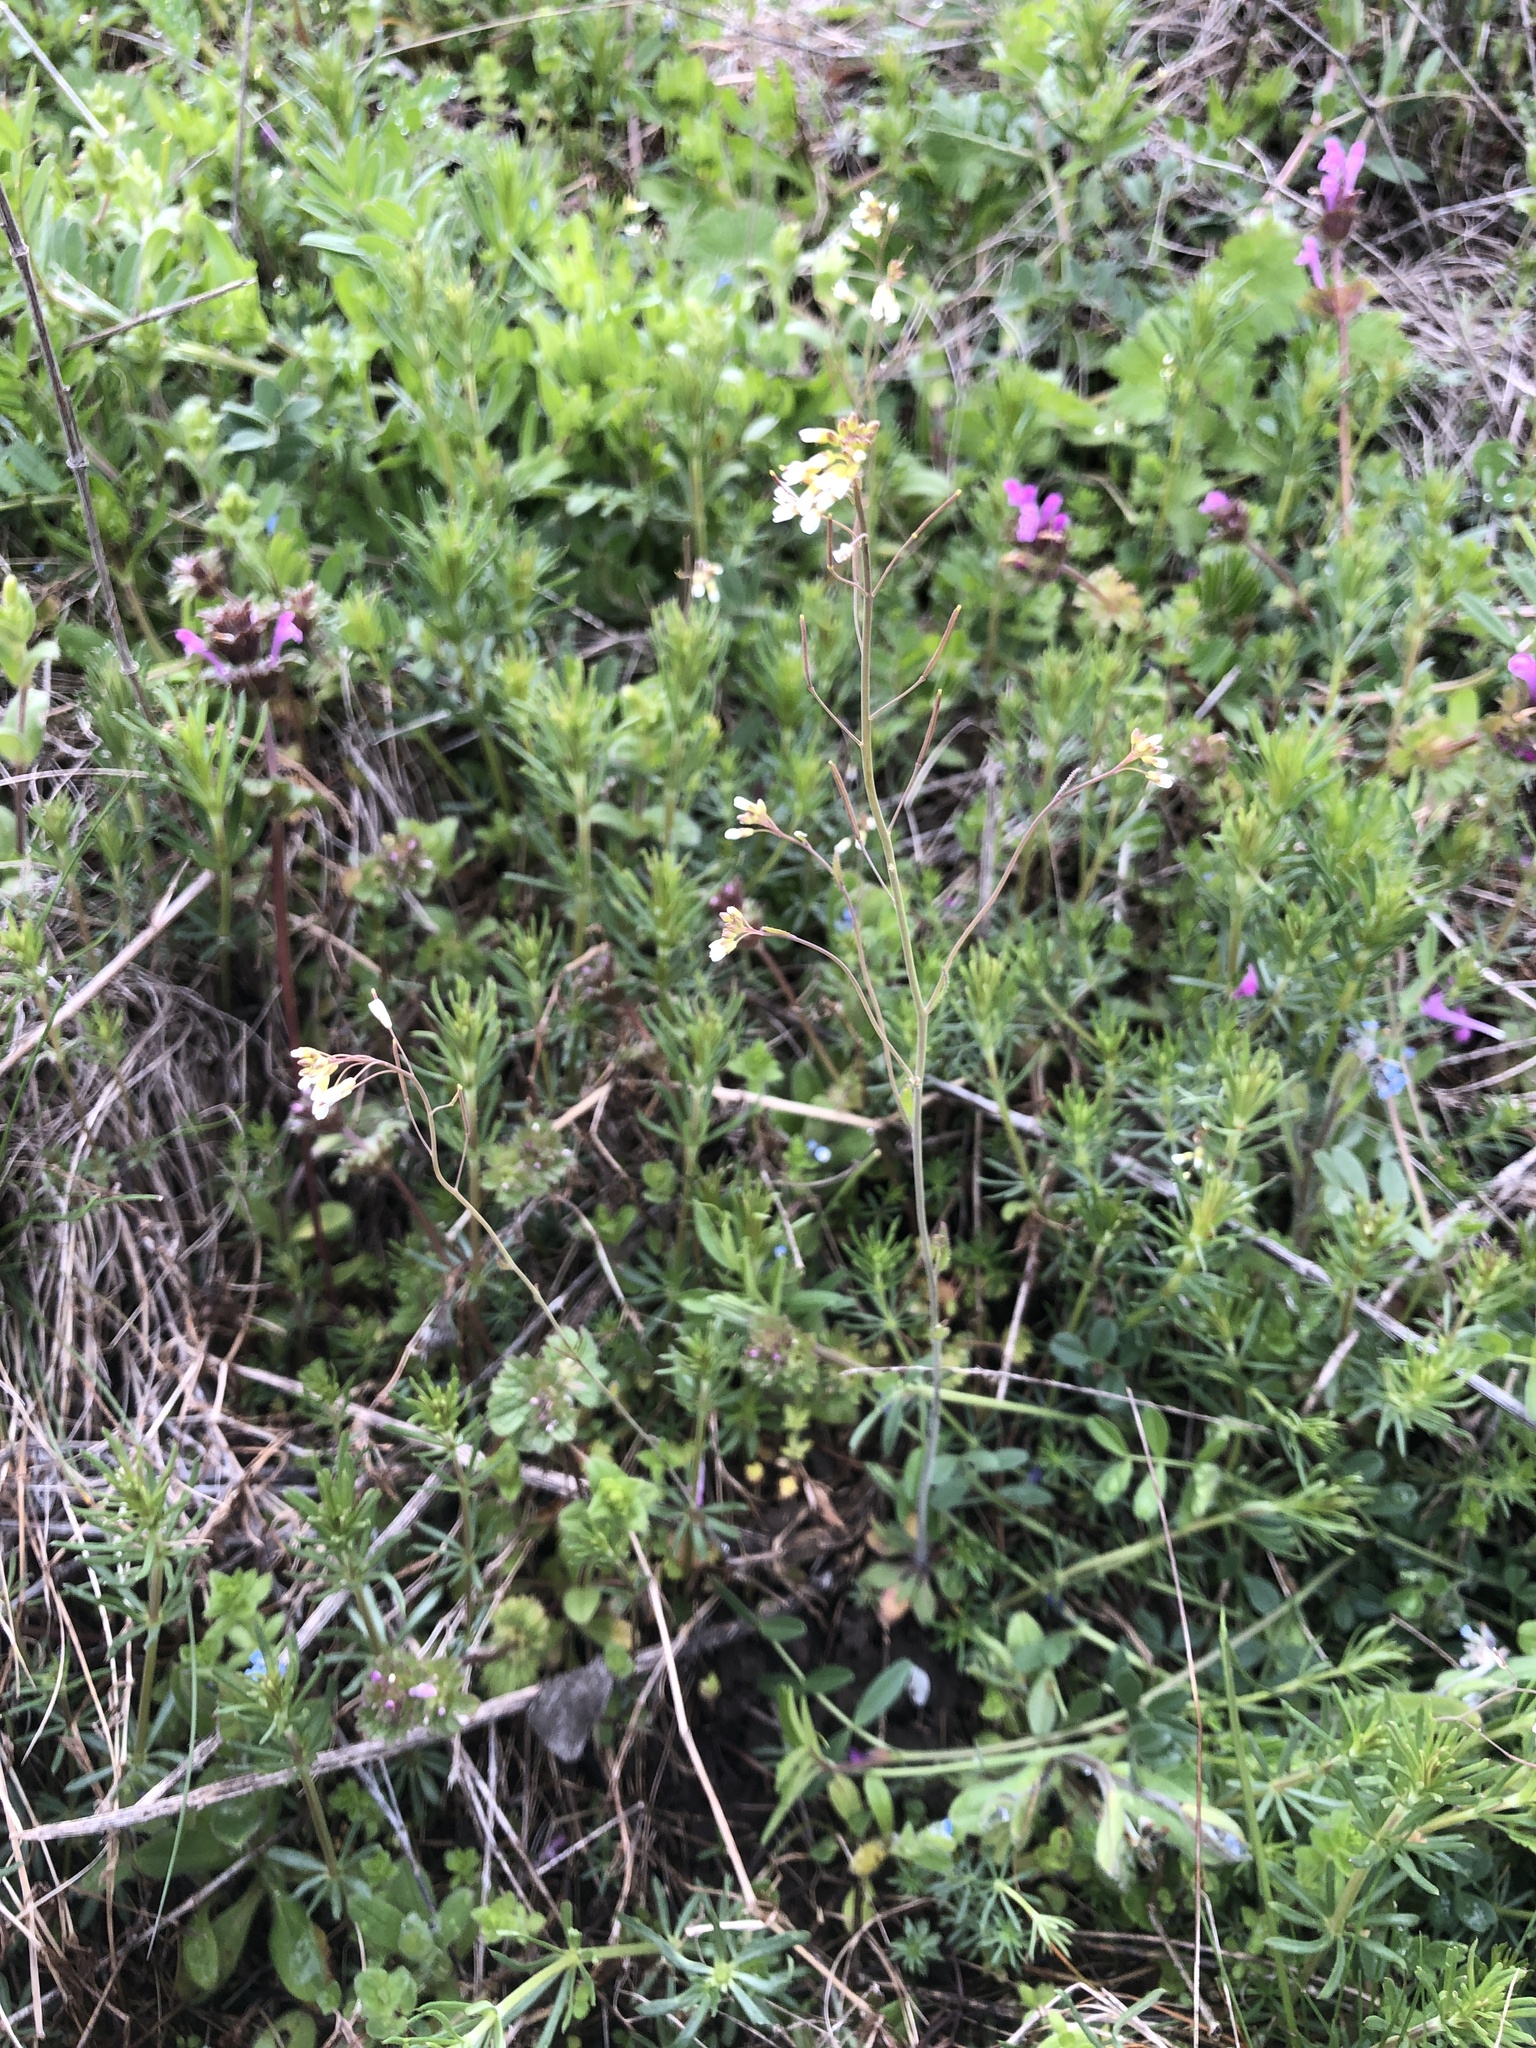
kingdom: Plantae
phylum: Tracheophyta
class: Magnoliopsida
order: Brassicales
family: Brassicaceae
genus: Arabidopsis
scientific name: Arabidopsis thaliana
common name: Thale cress
